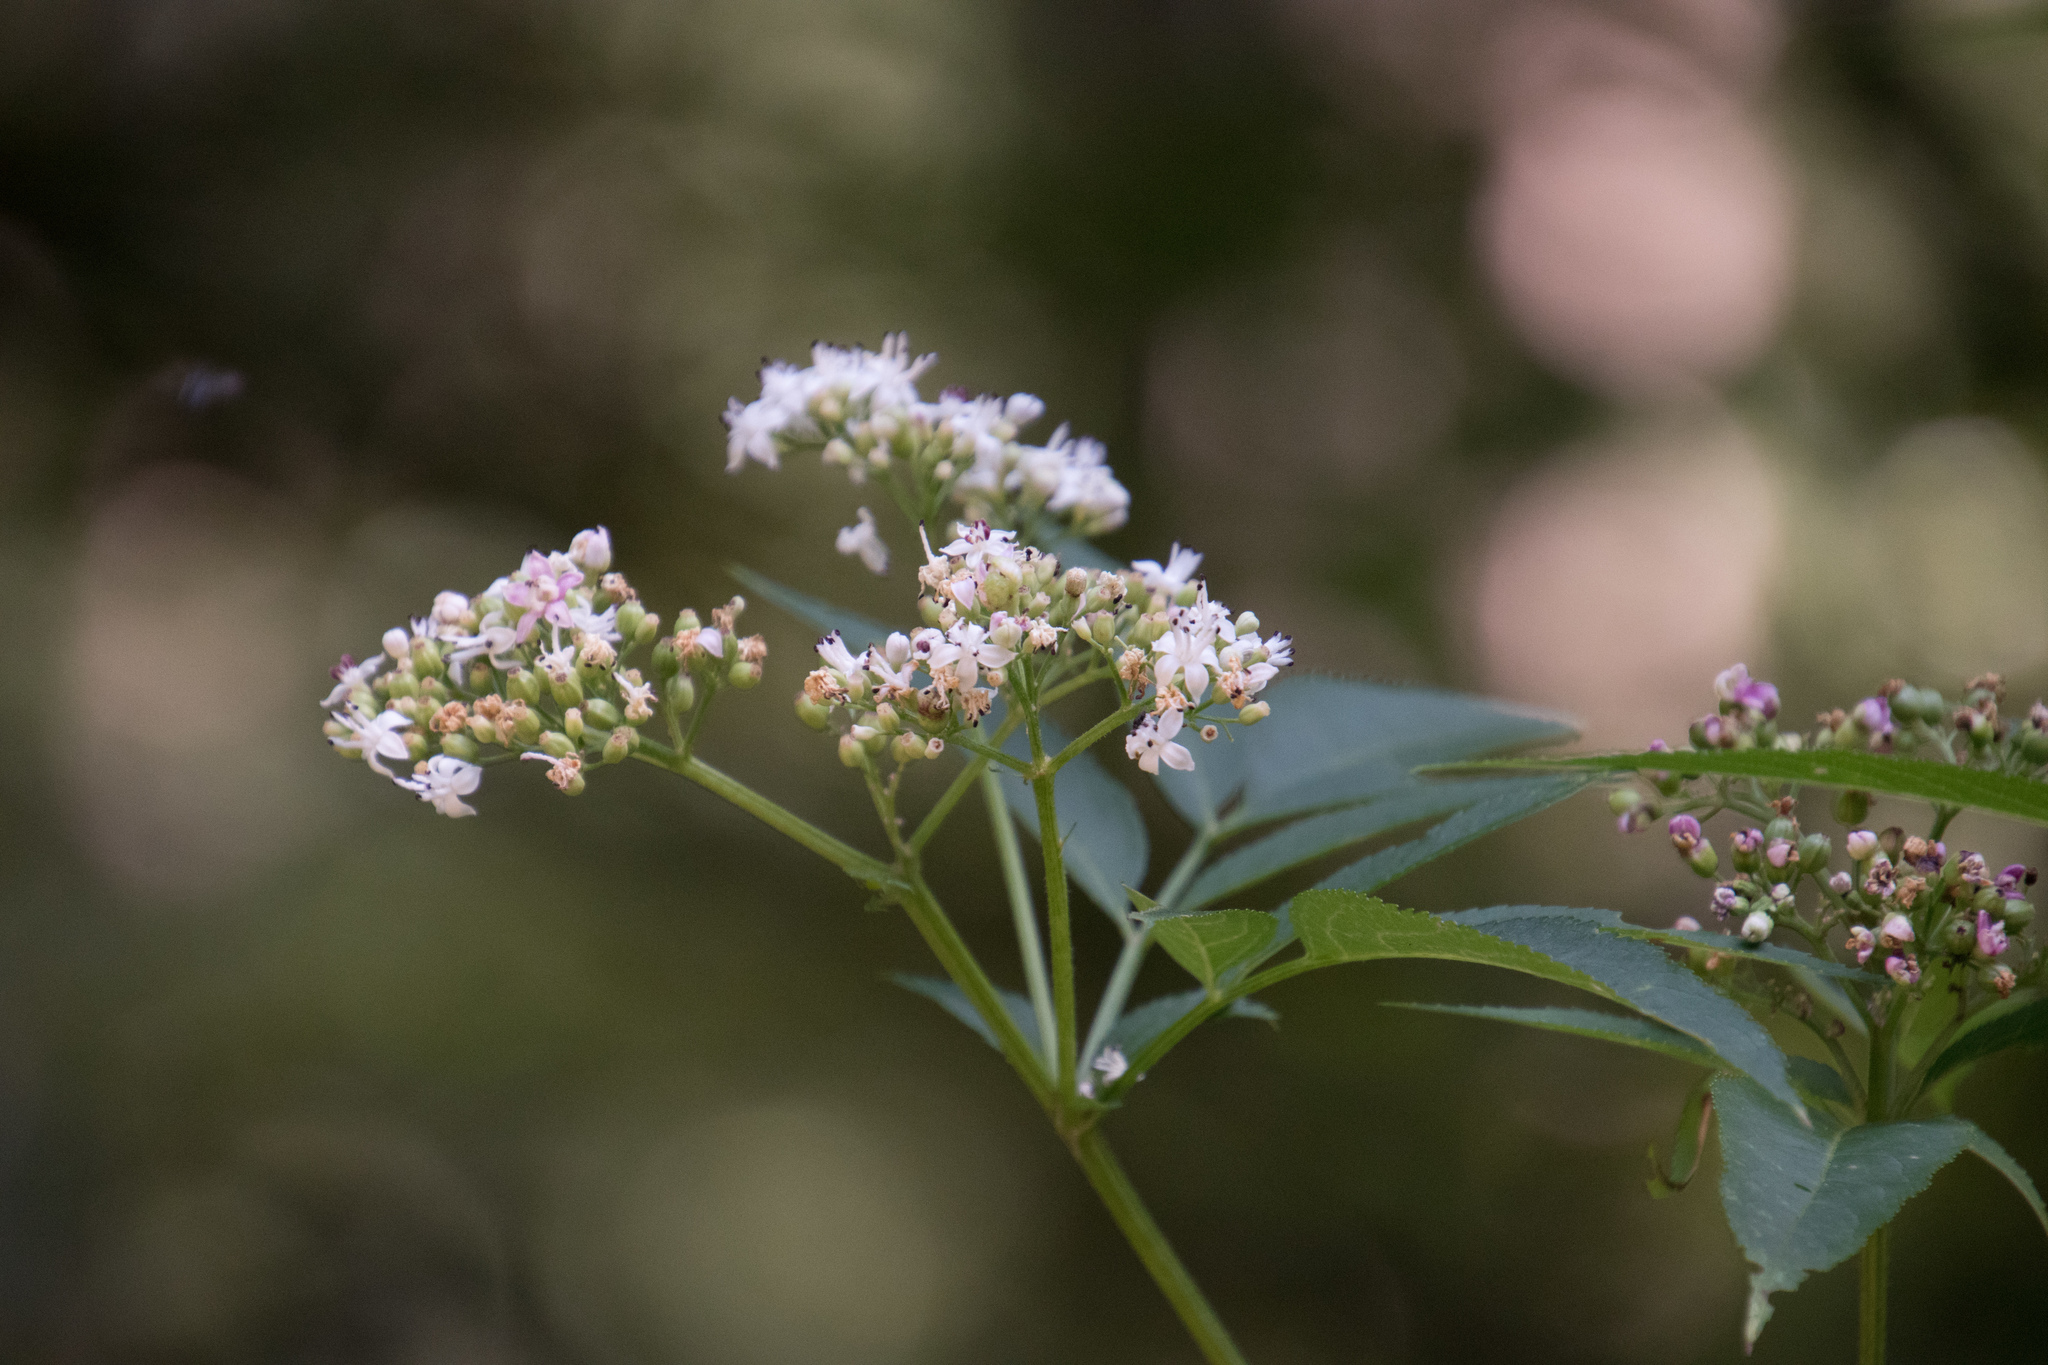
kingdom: Plantae
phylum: Tracheophyta
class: Magnoliopsida
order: Dipsacales
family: Viburnaceae
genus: Sambucus
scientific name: Sambucus ebulus
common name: Dwarf elder
